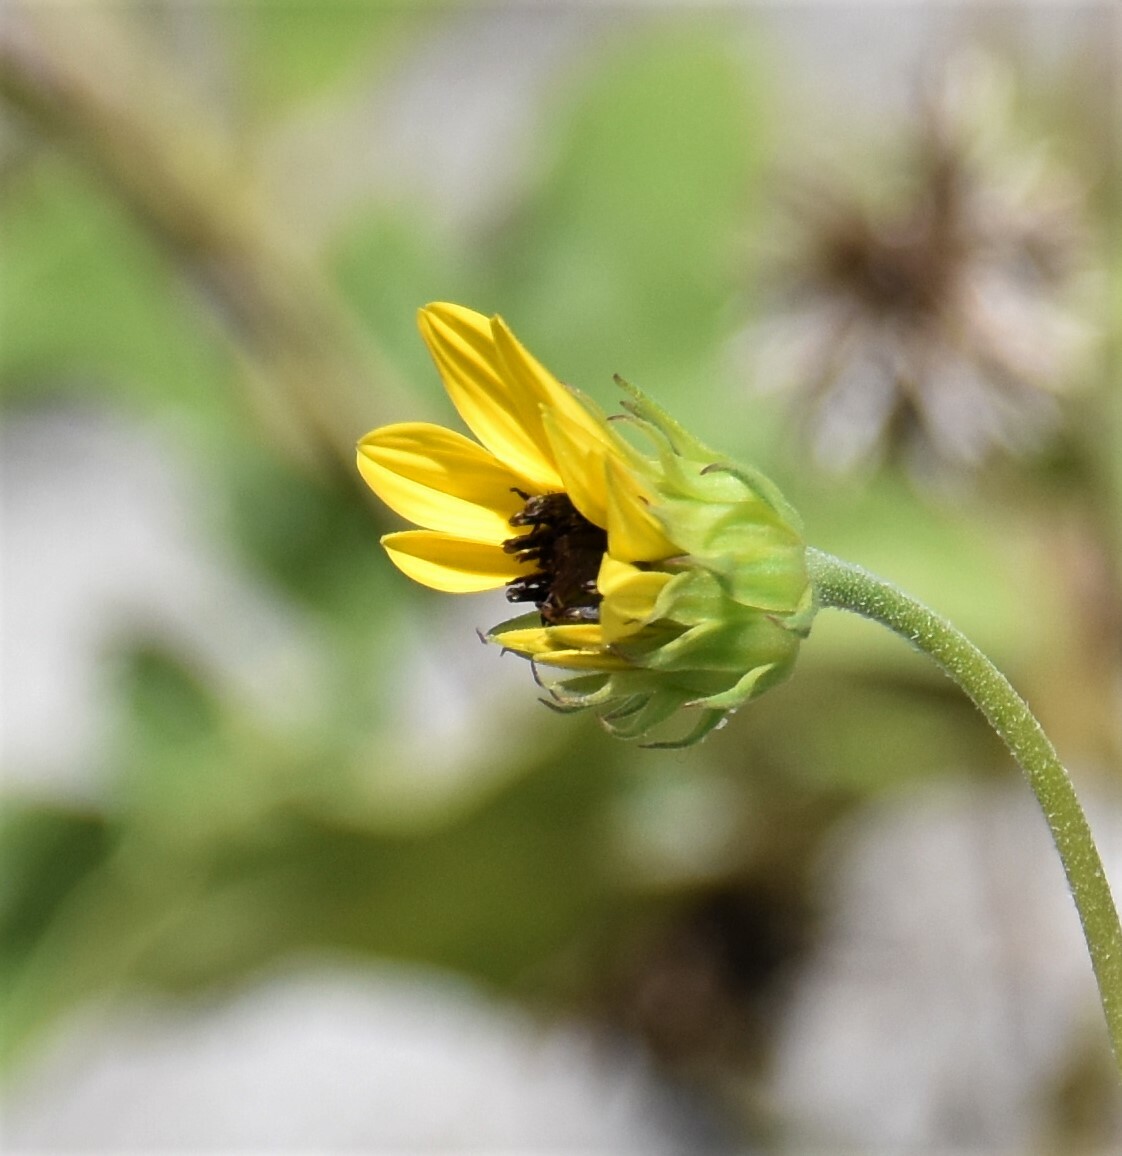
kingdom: Plantae
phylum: Tracheophyta
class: Magnoliopsida
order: Asterales
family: Asteraceae
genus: Helianthus
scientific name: Helianthus debilis
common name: Weak sunflower
